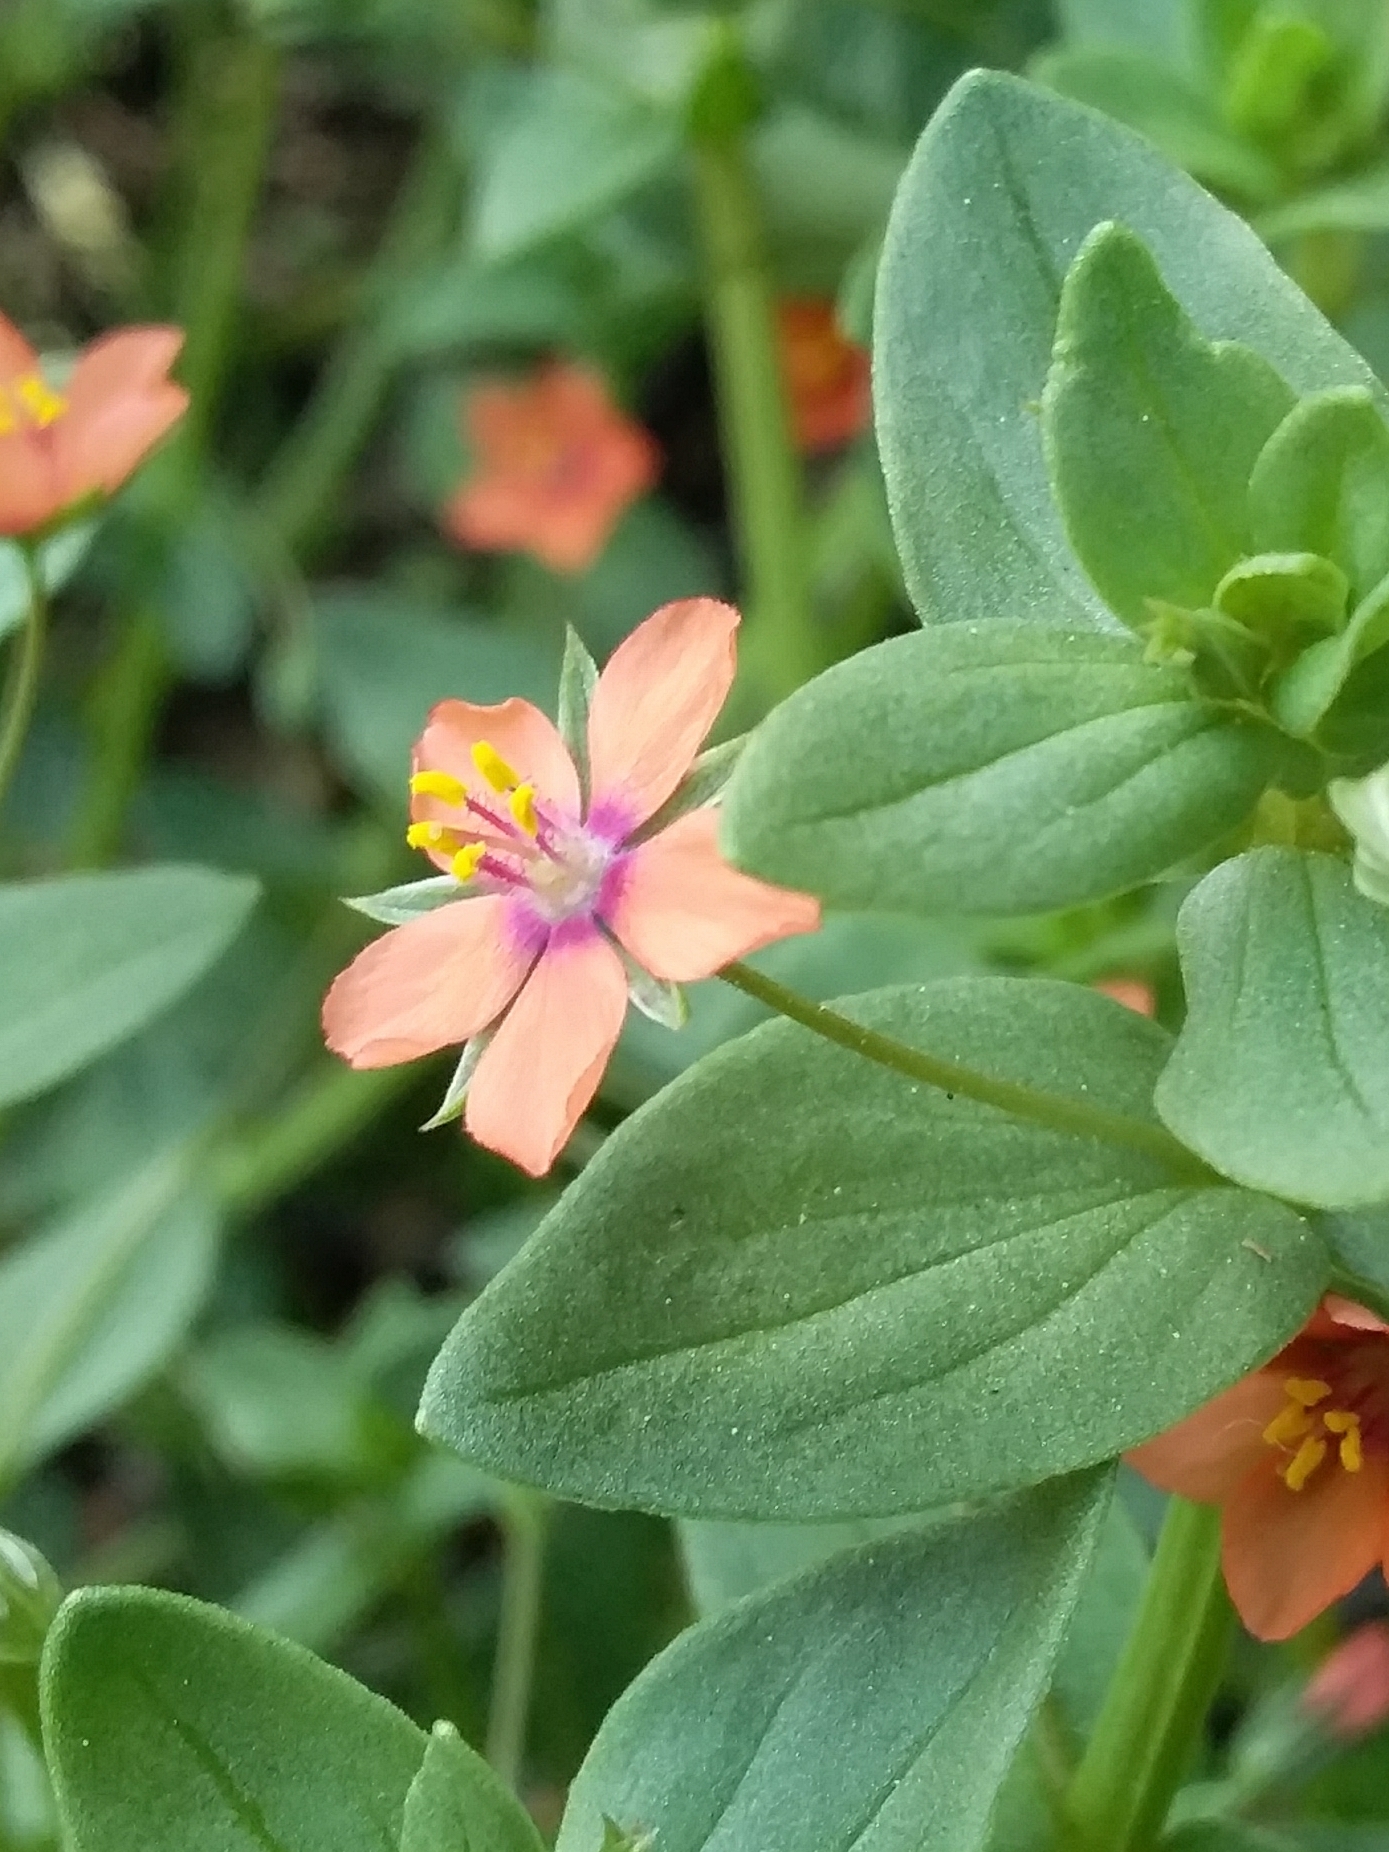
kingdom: Plantae
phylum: Tracheophyta
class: Magnoliopsida
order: Ericales
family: Primulaceae
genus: Lysimachia
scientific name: Lysimachia arvensis
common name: Scarlet pimpernel
